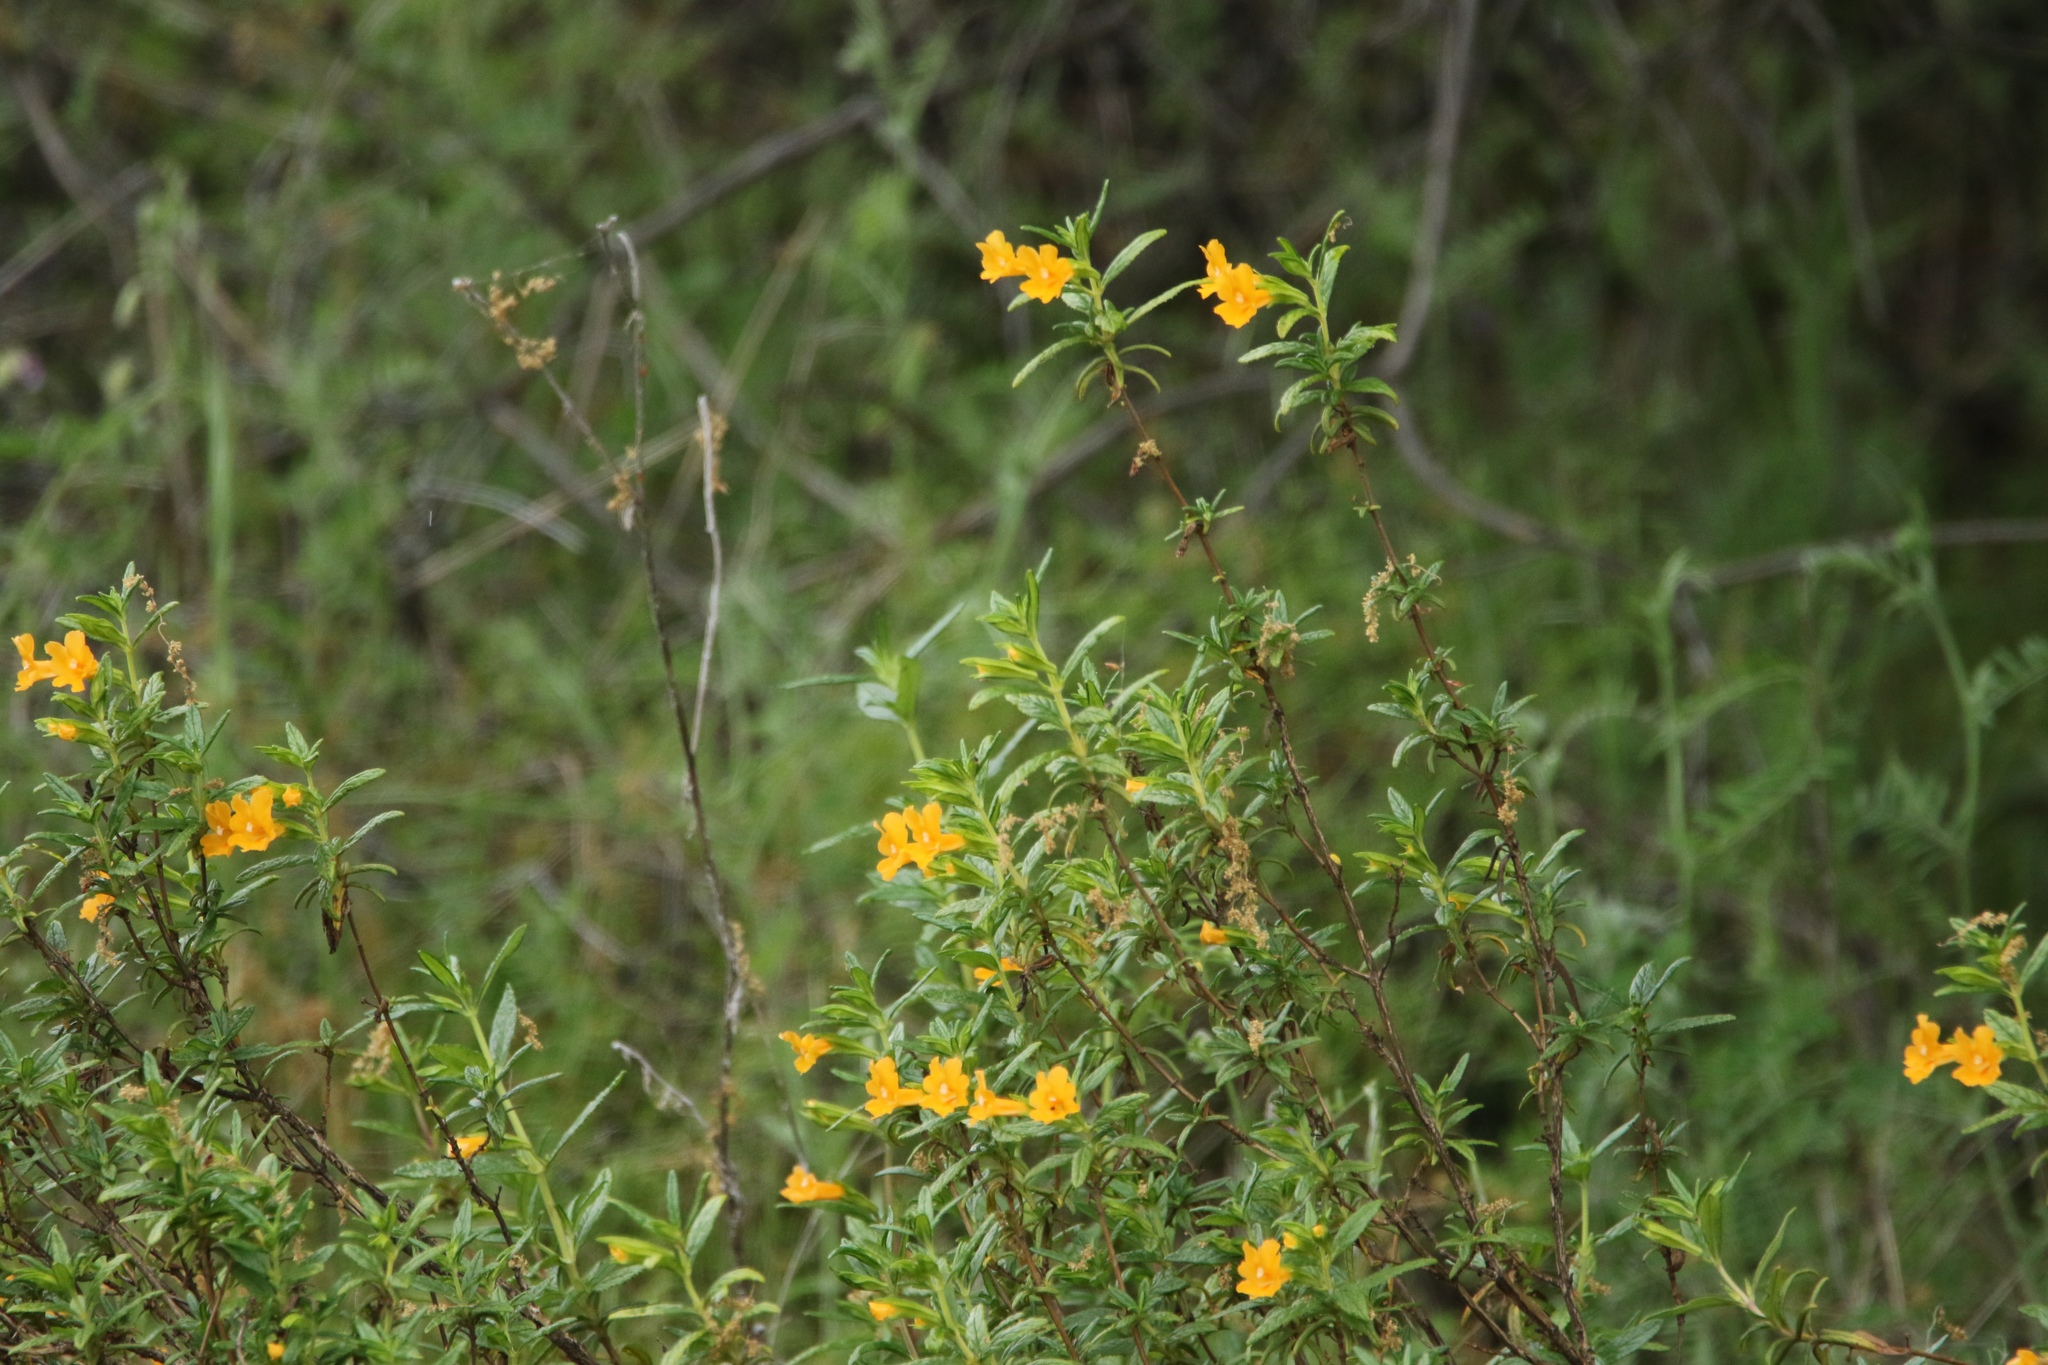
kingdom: Plantae
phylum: Tracheophyta
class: Magnoliopsida
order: Lamiales
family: Phrymaceae
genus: Diplacus
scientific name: Diplacus aurantiacus
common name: Bush monkey-flower
